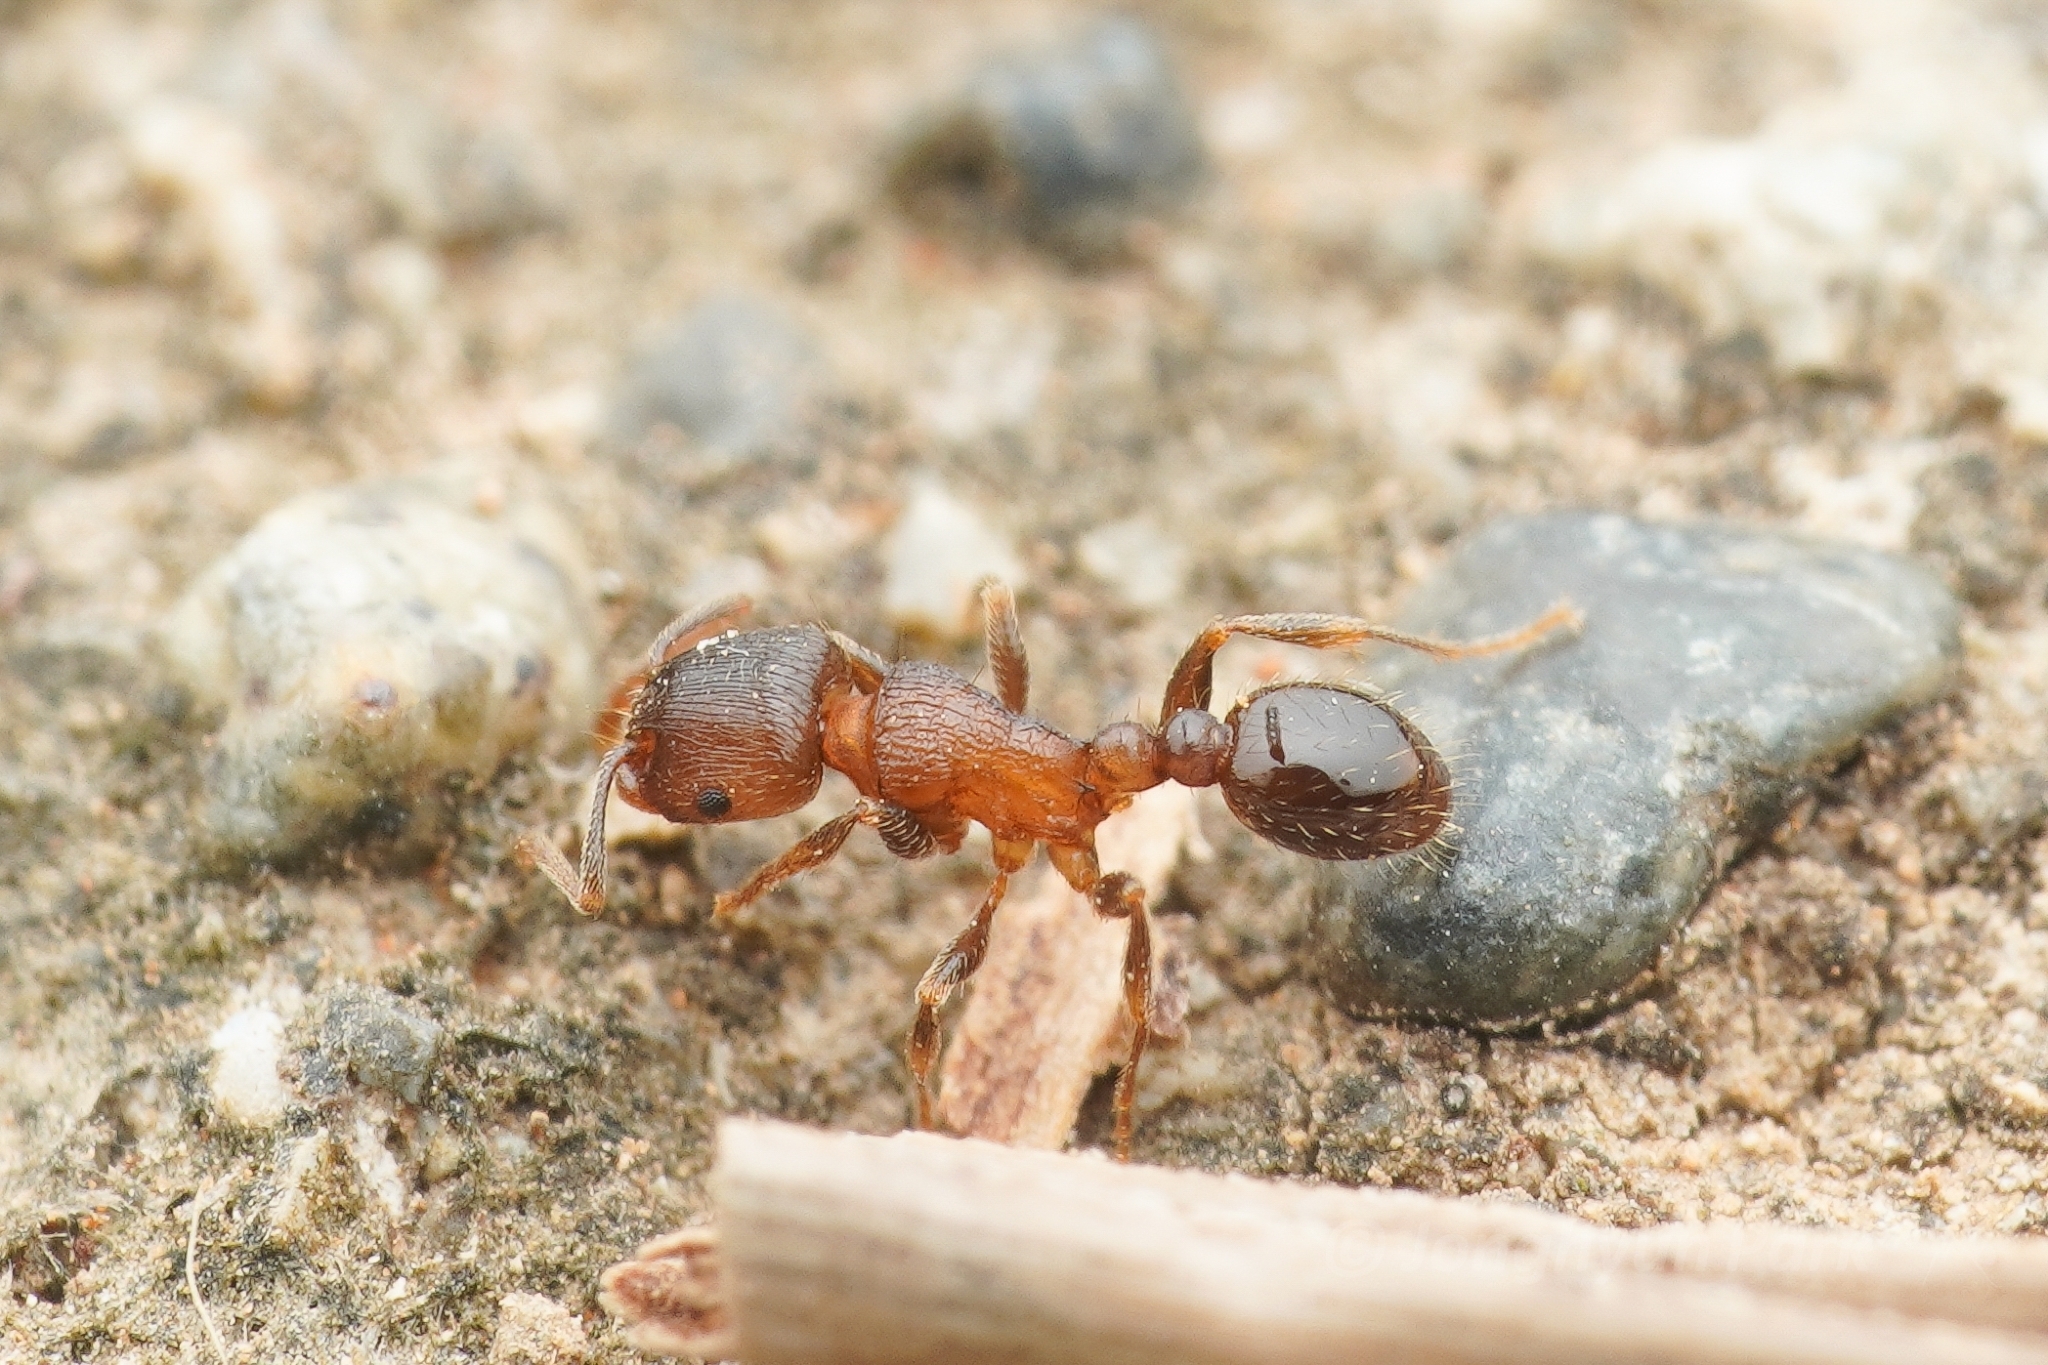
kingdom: Animalia
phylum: Arthropoda
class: Insecta
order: Hymenoptera
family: Formicidae
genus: Tetramorium
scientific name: Tetramorium tsushimae
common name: Ant
